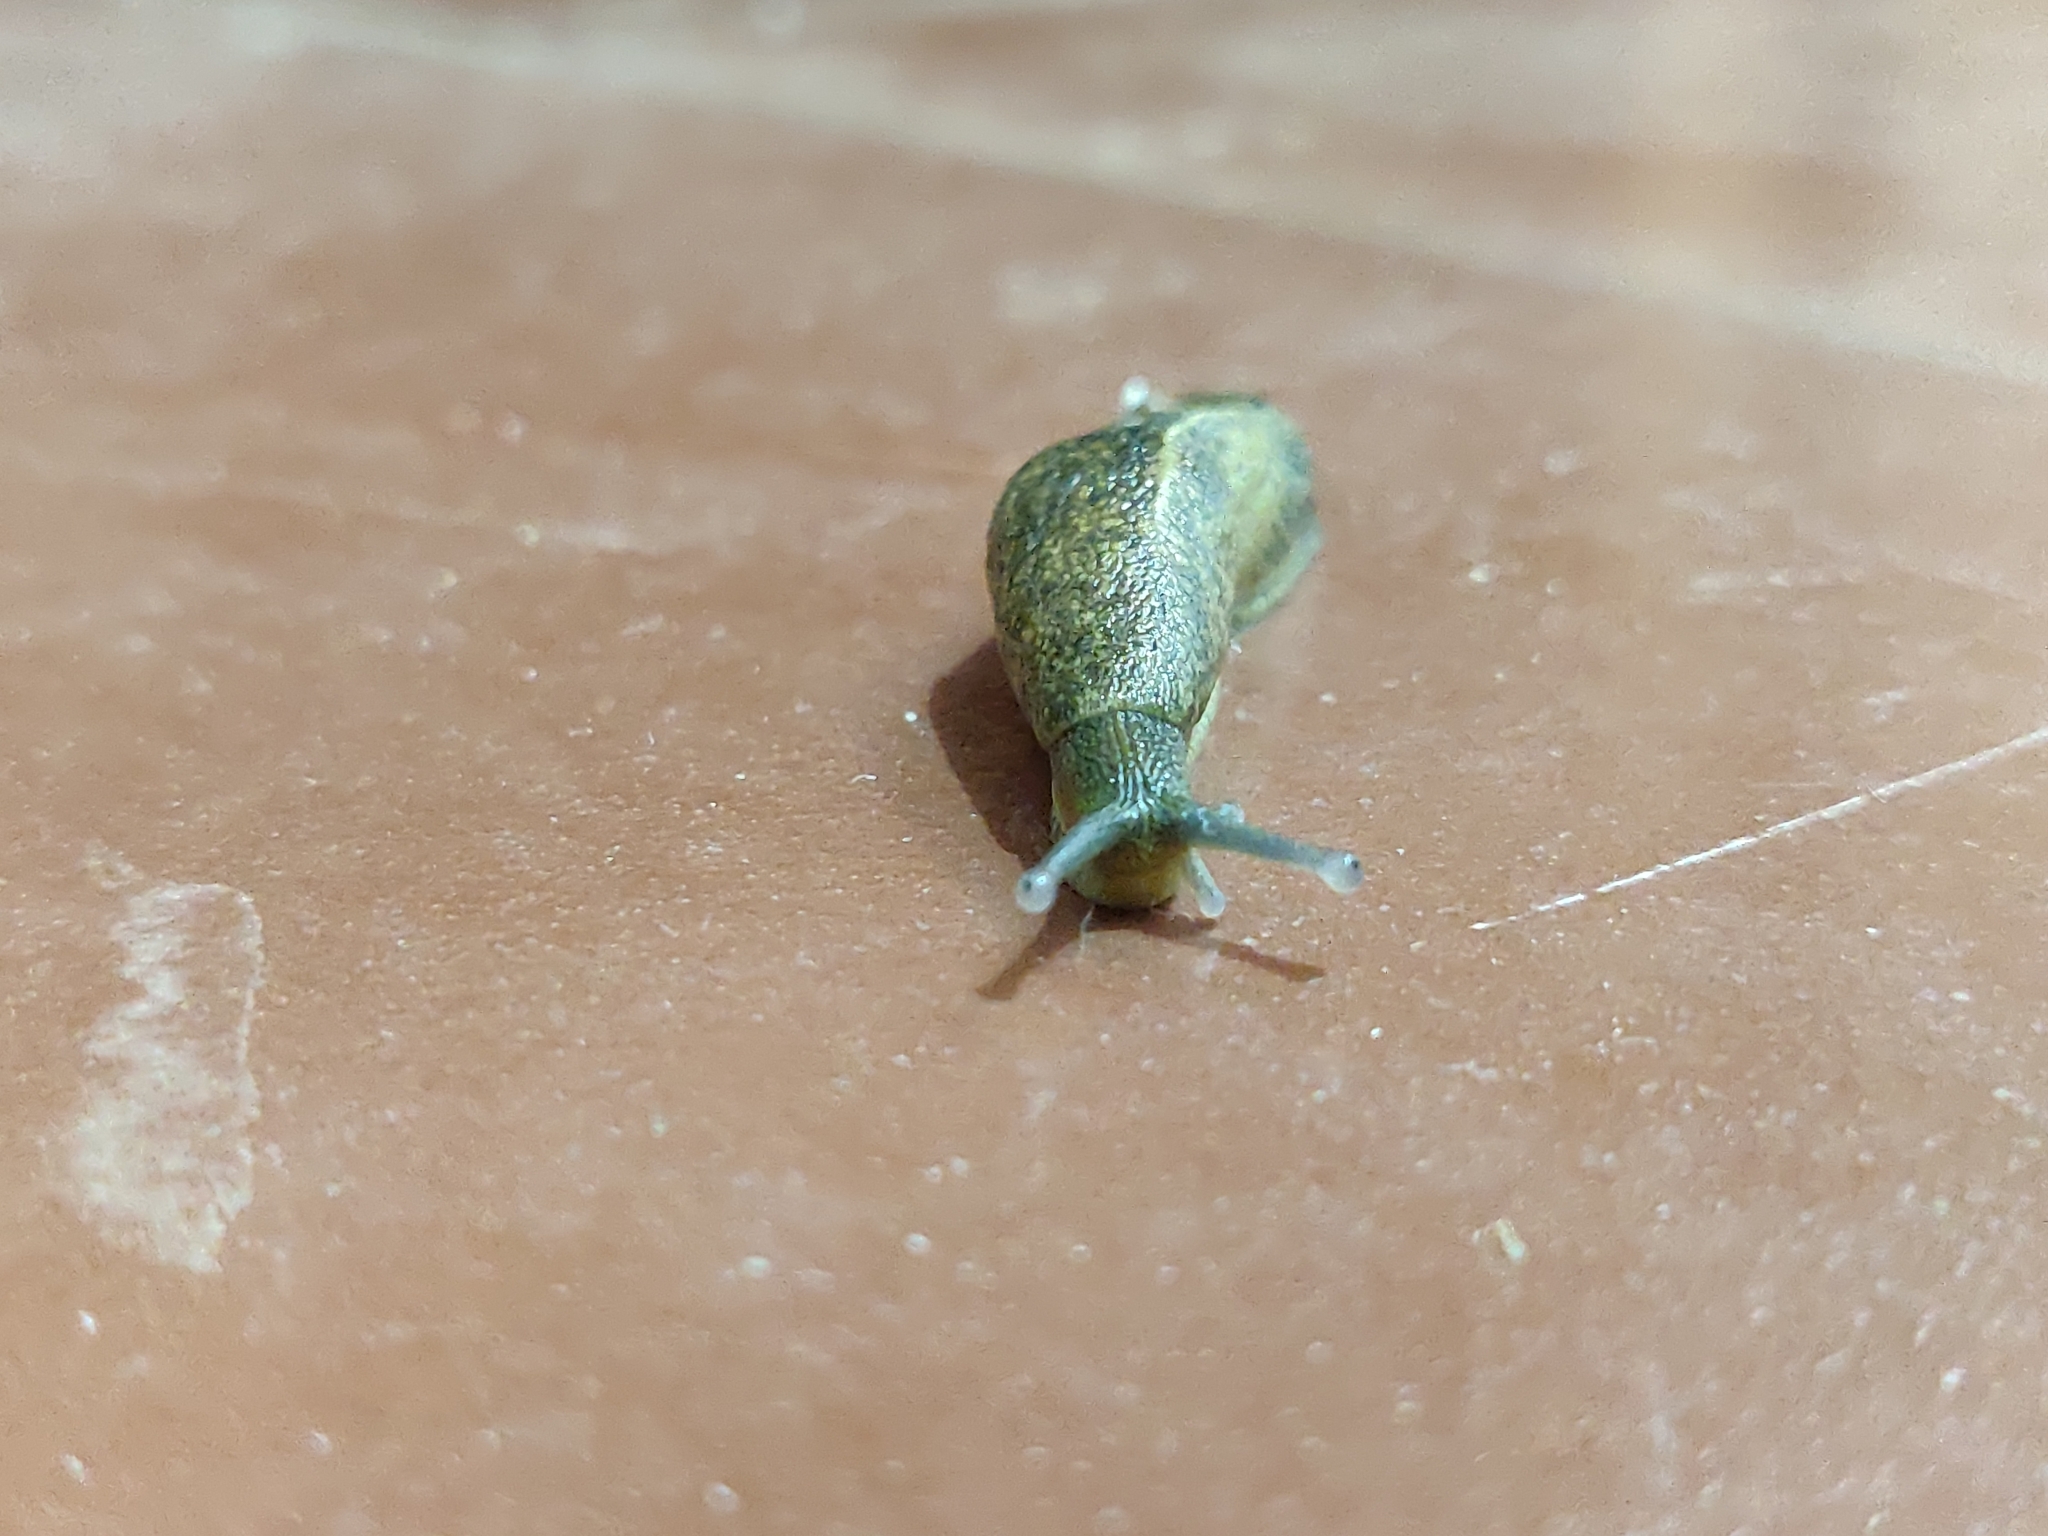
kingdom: Animalia
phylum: Mollusca
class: Gastropoda
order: Stylommatophora
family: Ariophantidae
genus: Mariaella
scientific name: Mariaella dussumieri
